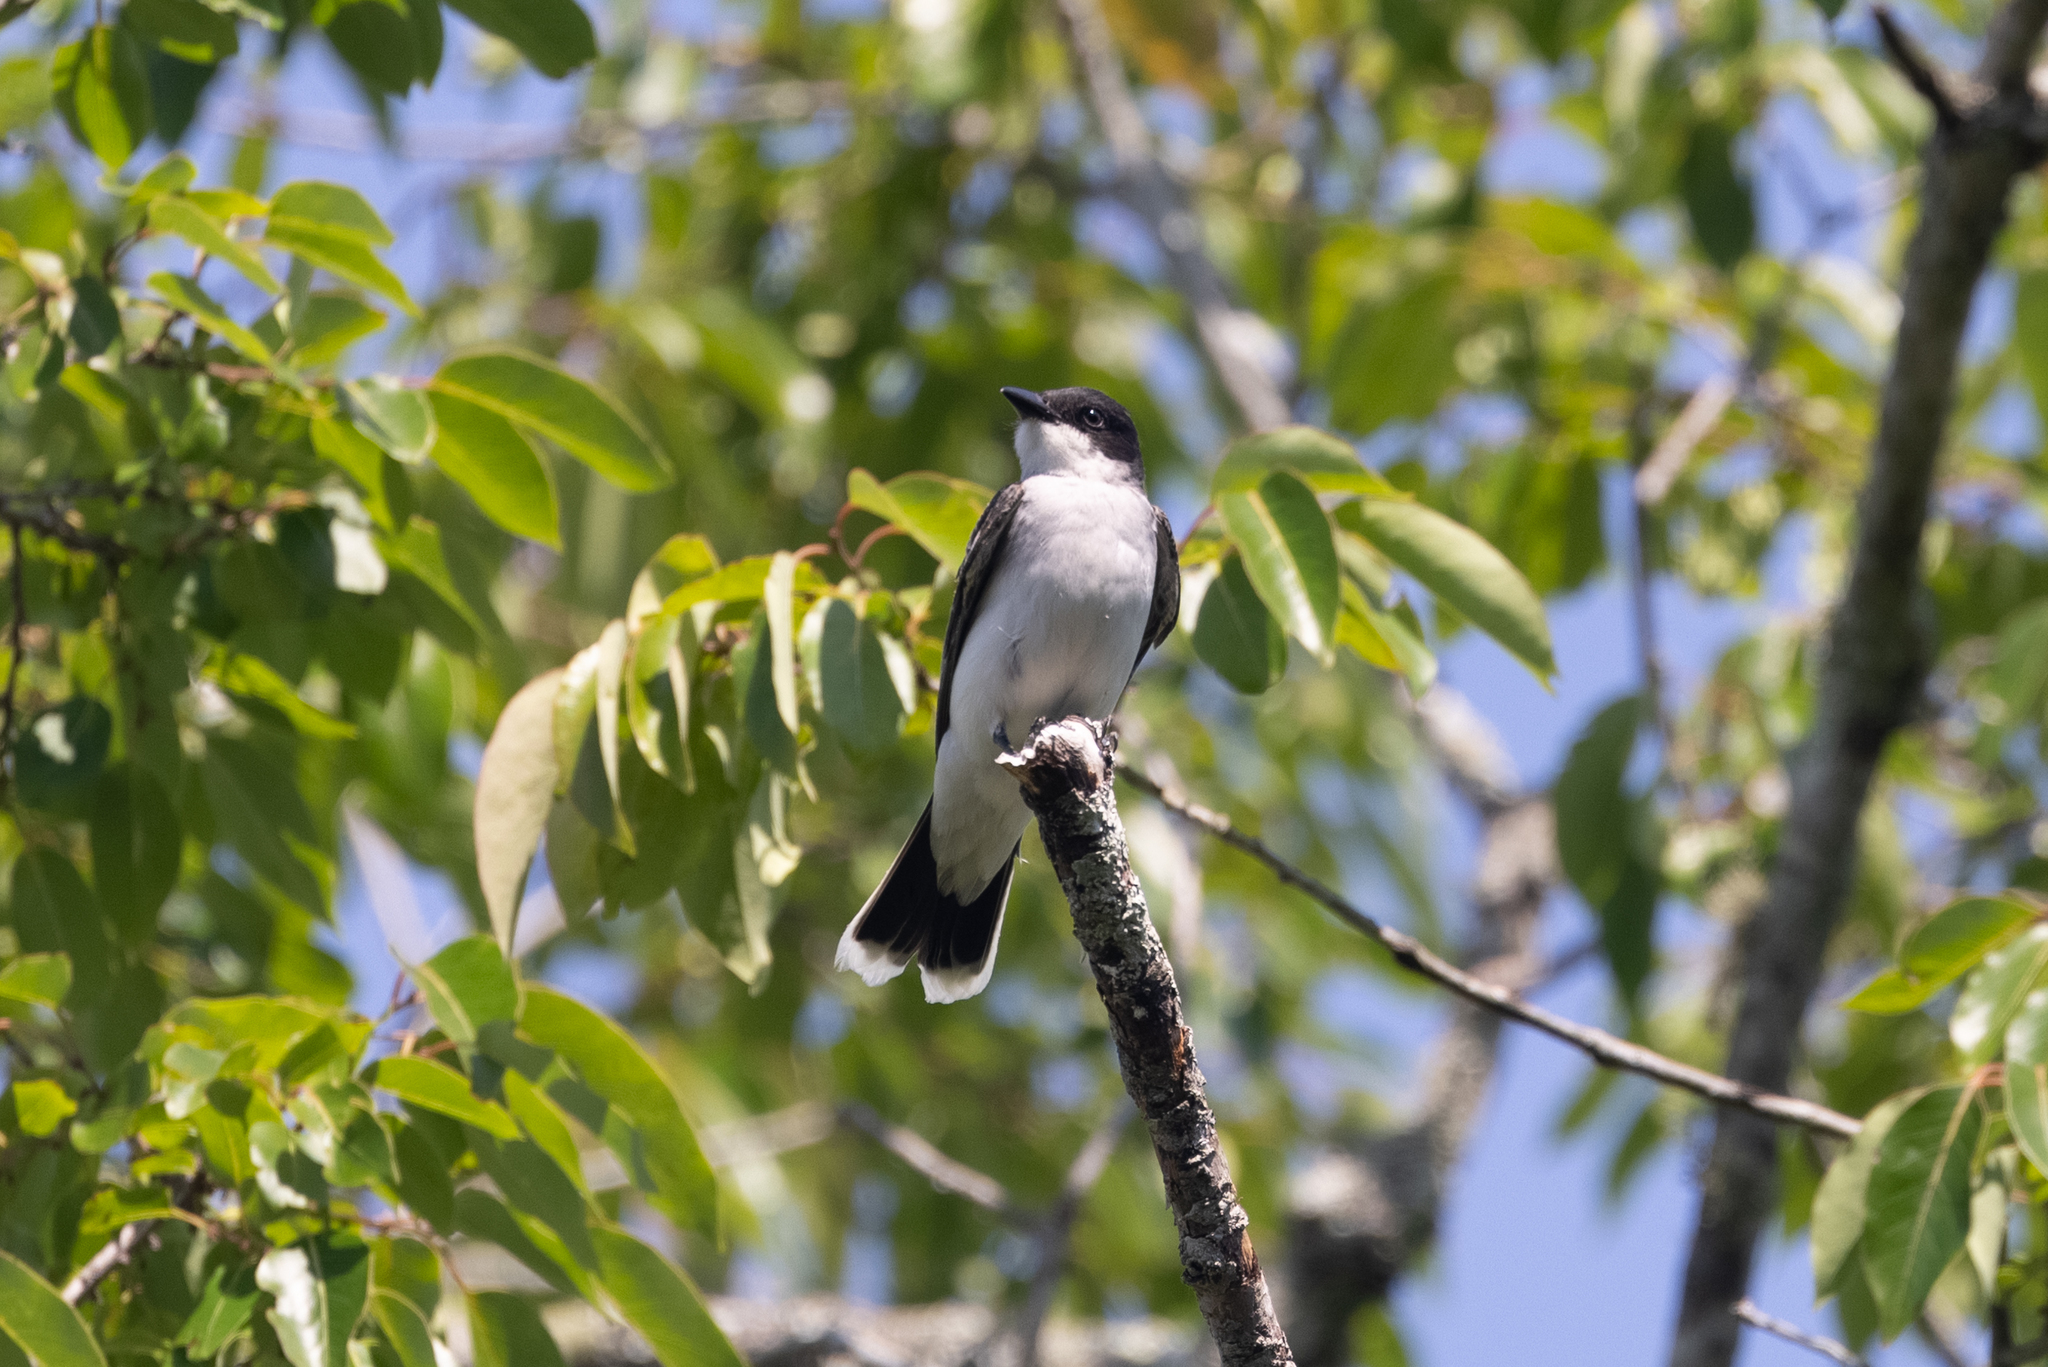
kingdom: Animalia
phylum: Chordata
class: Aves
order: Passeriformes
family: Tyrannidae
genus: Tyrannus
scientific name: Tyrannus tyrannus
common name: Eastern kingbird
